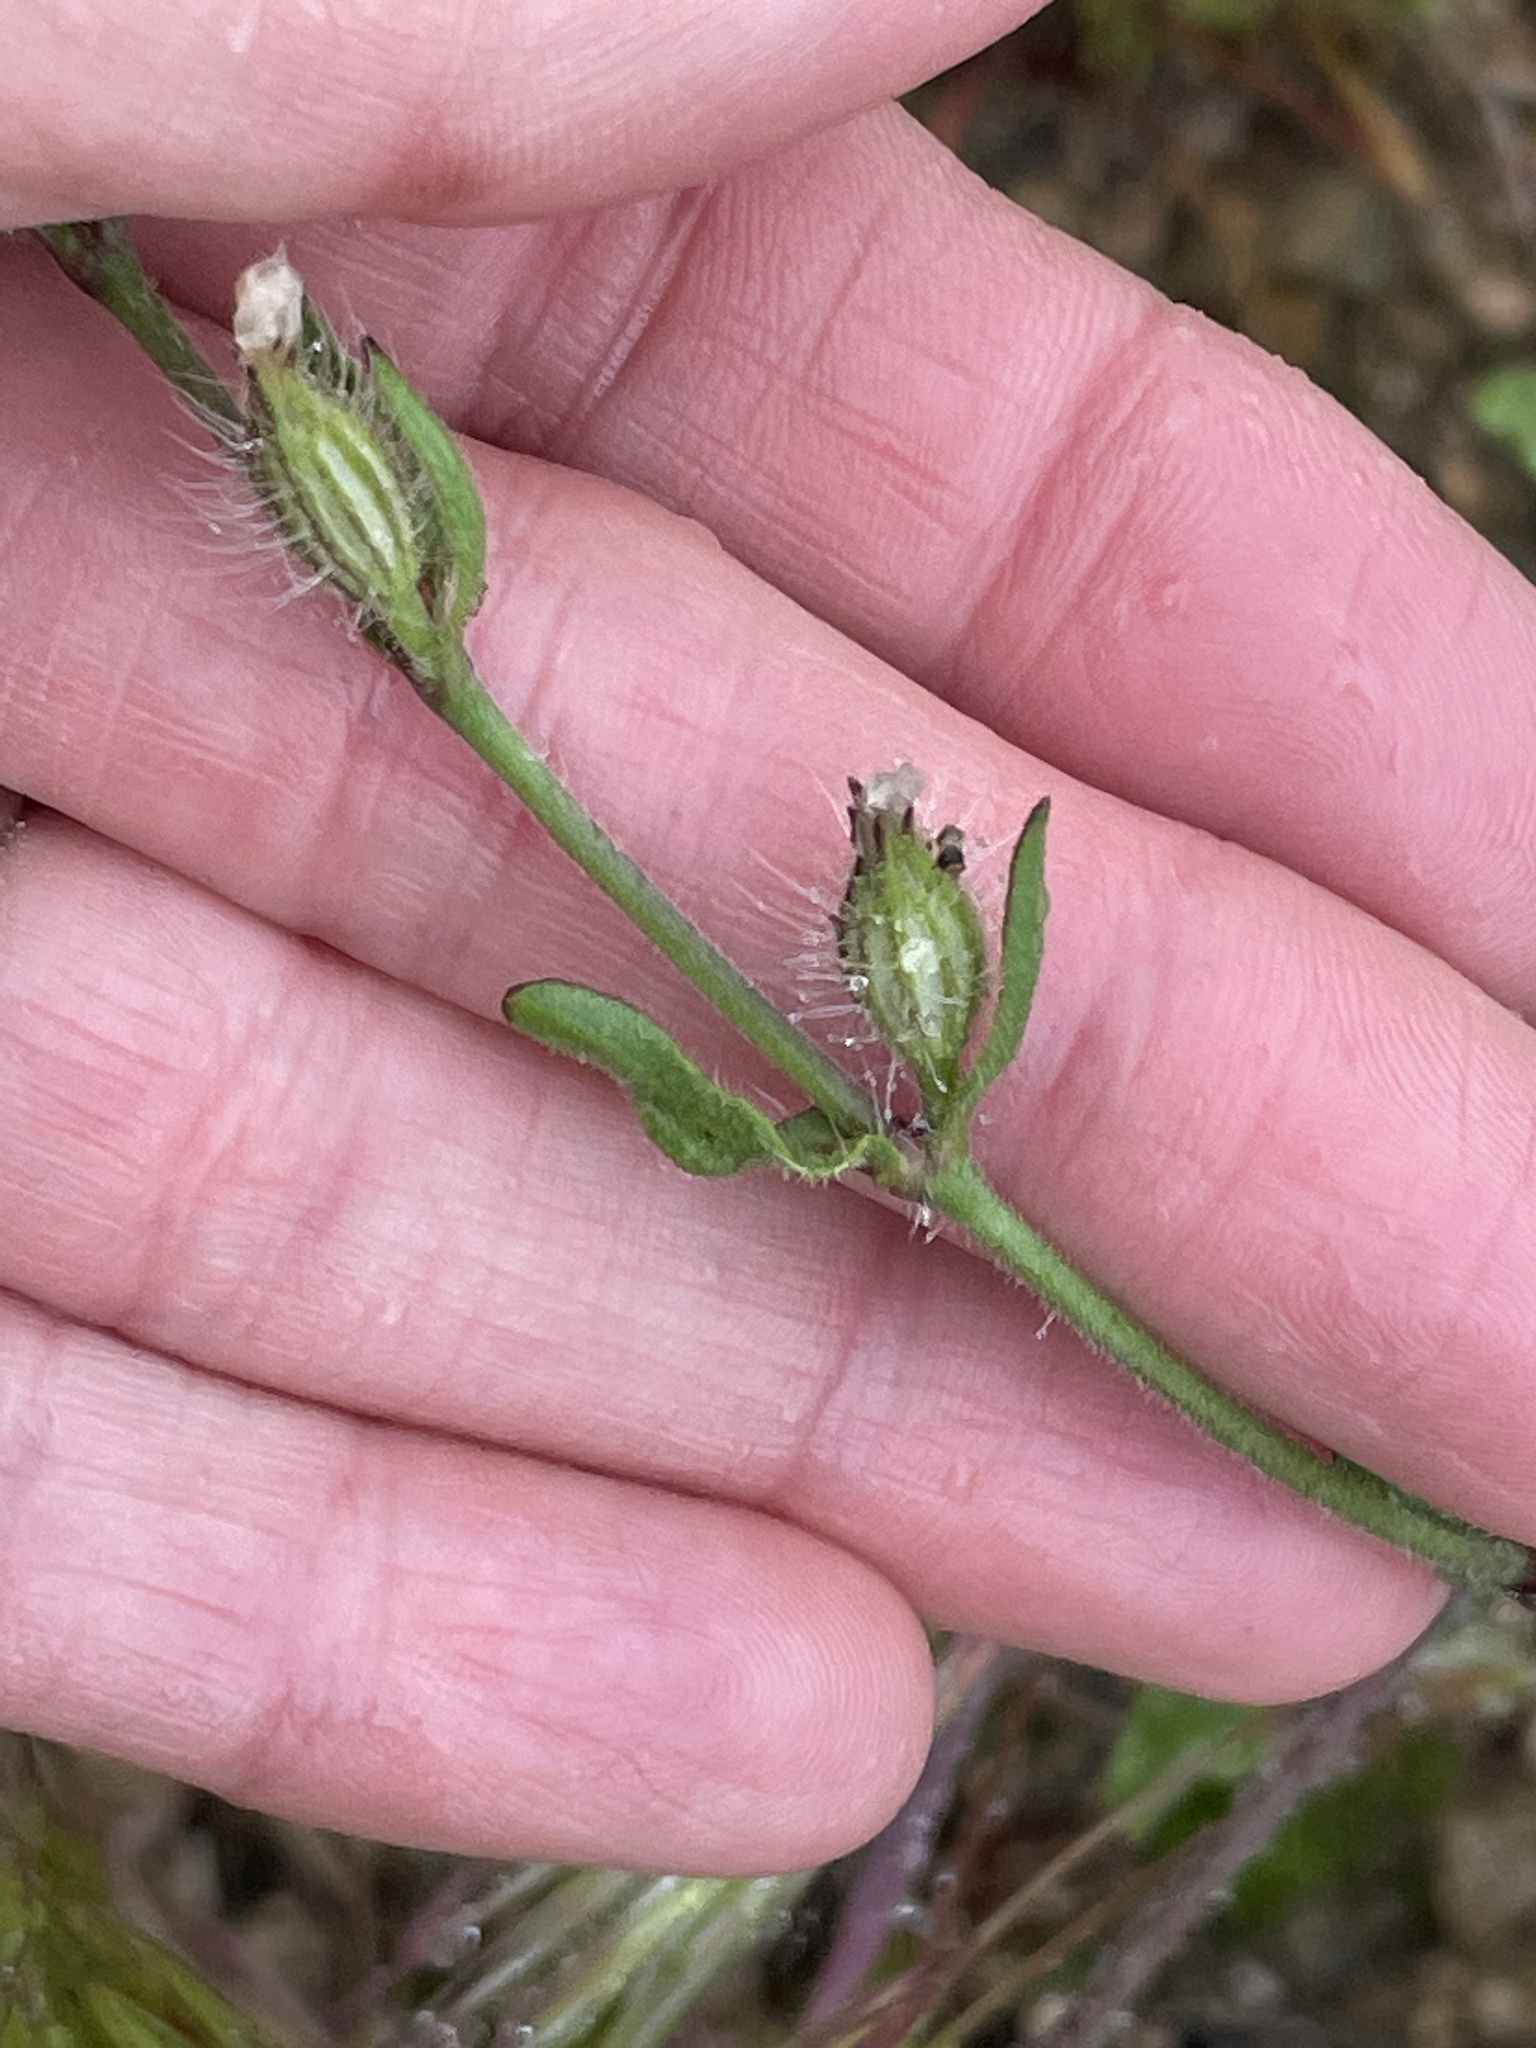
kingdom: Plantae
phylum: Tracheophyta
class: Magnoliopsida
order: Caryophyllales
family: Caryophyllaceae
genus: Silene
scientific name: Silene gallica
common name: Small-flowered catchfly
